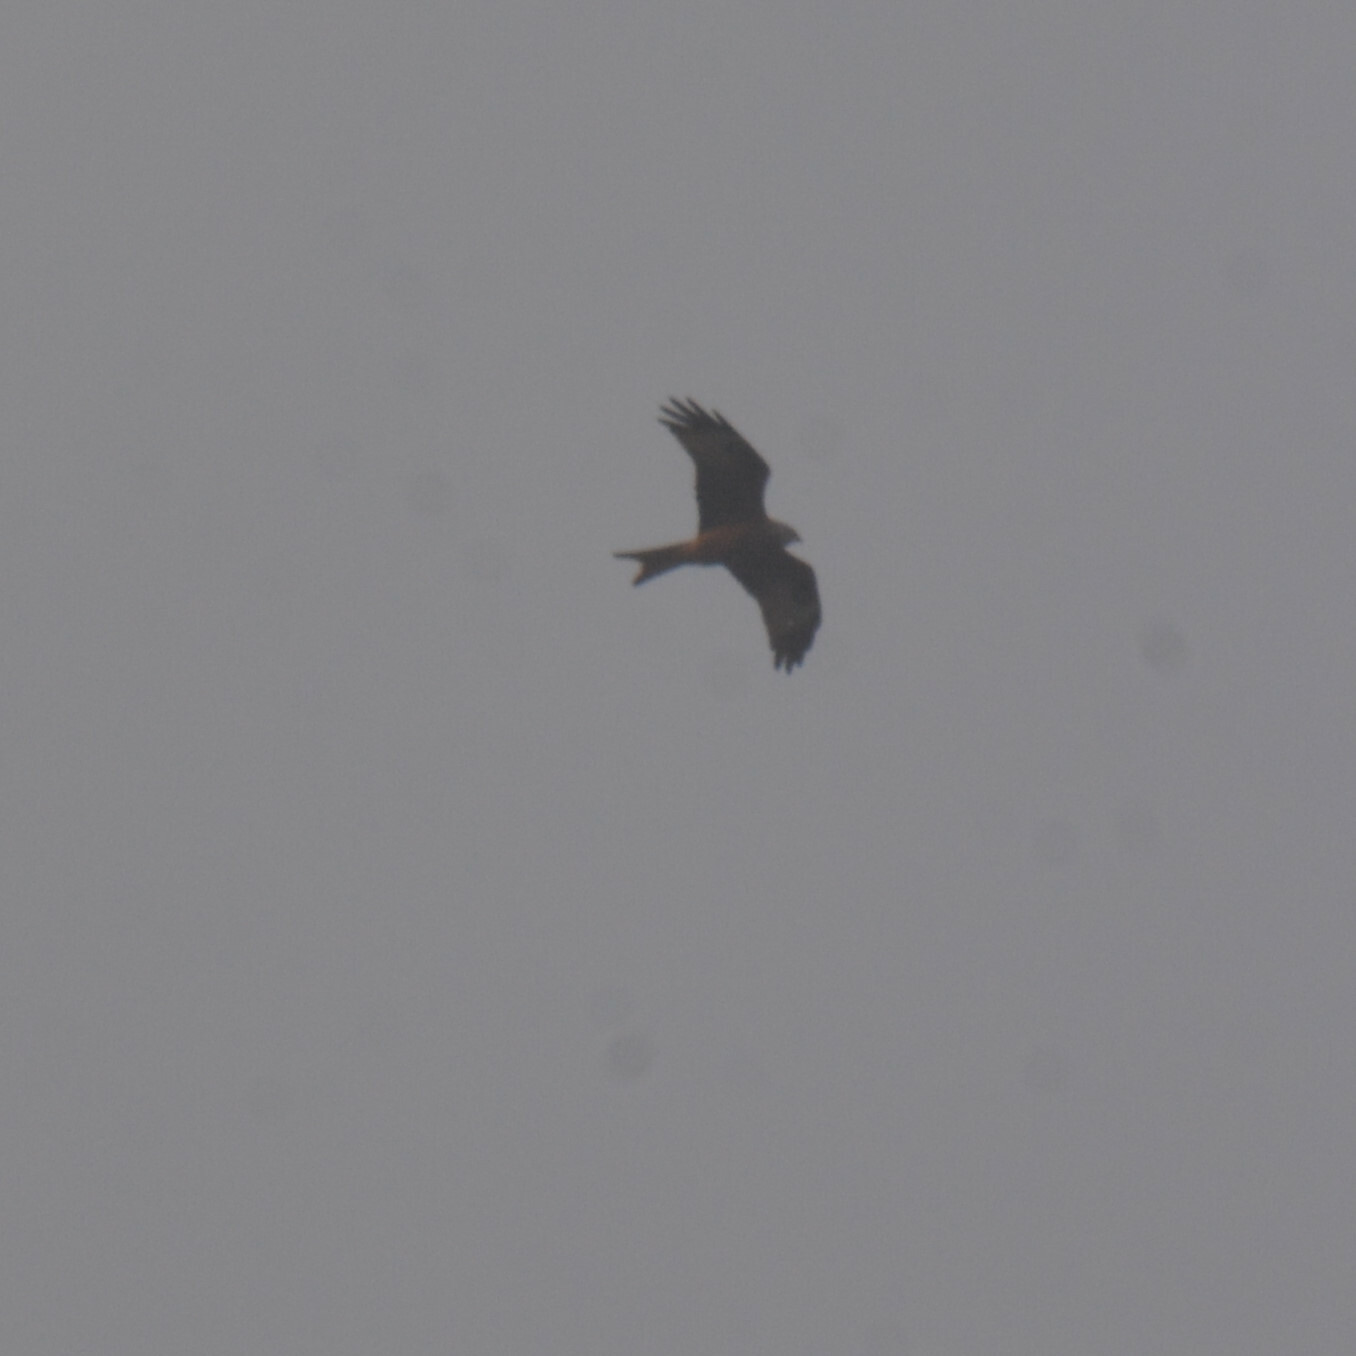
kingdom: Animalia
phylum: Chordata
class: Aves
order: Accipitriformes
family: Accipitridae
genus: Milvus
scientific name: Milvus milvus
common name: Red kite
